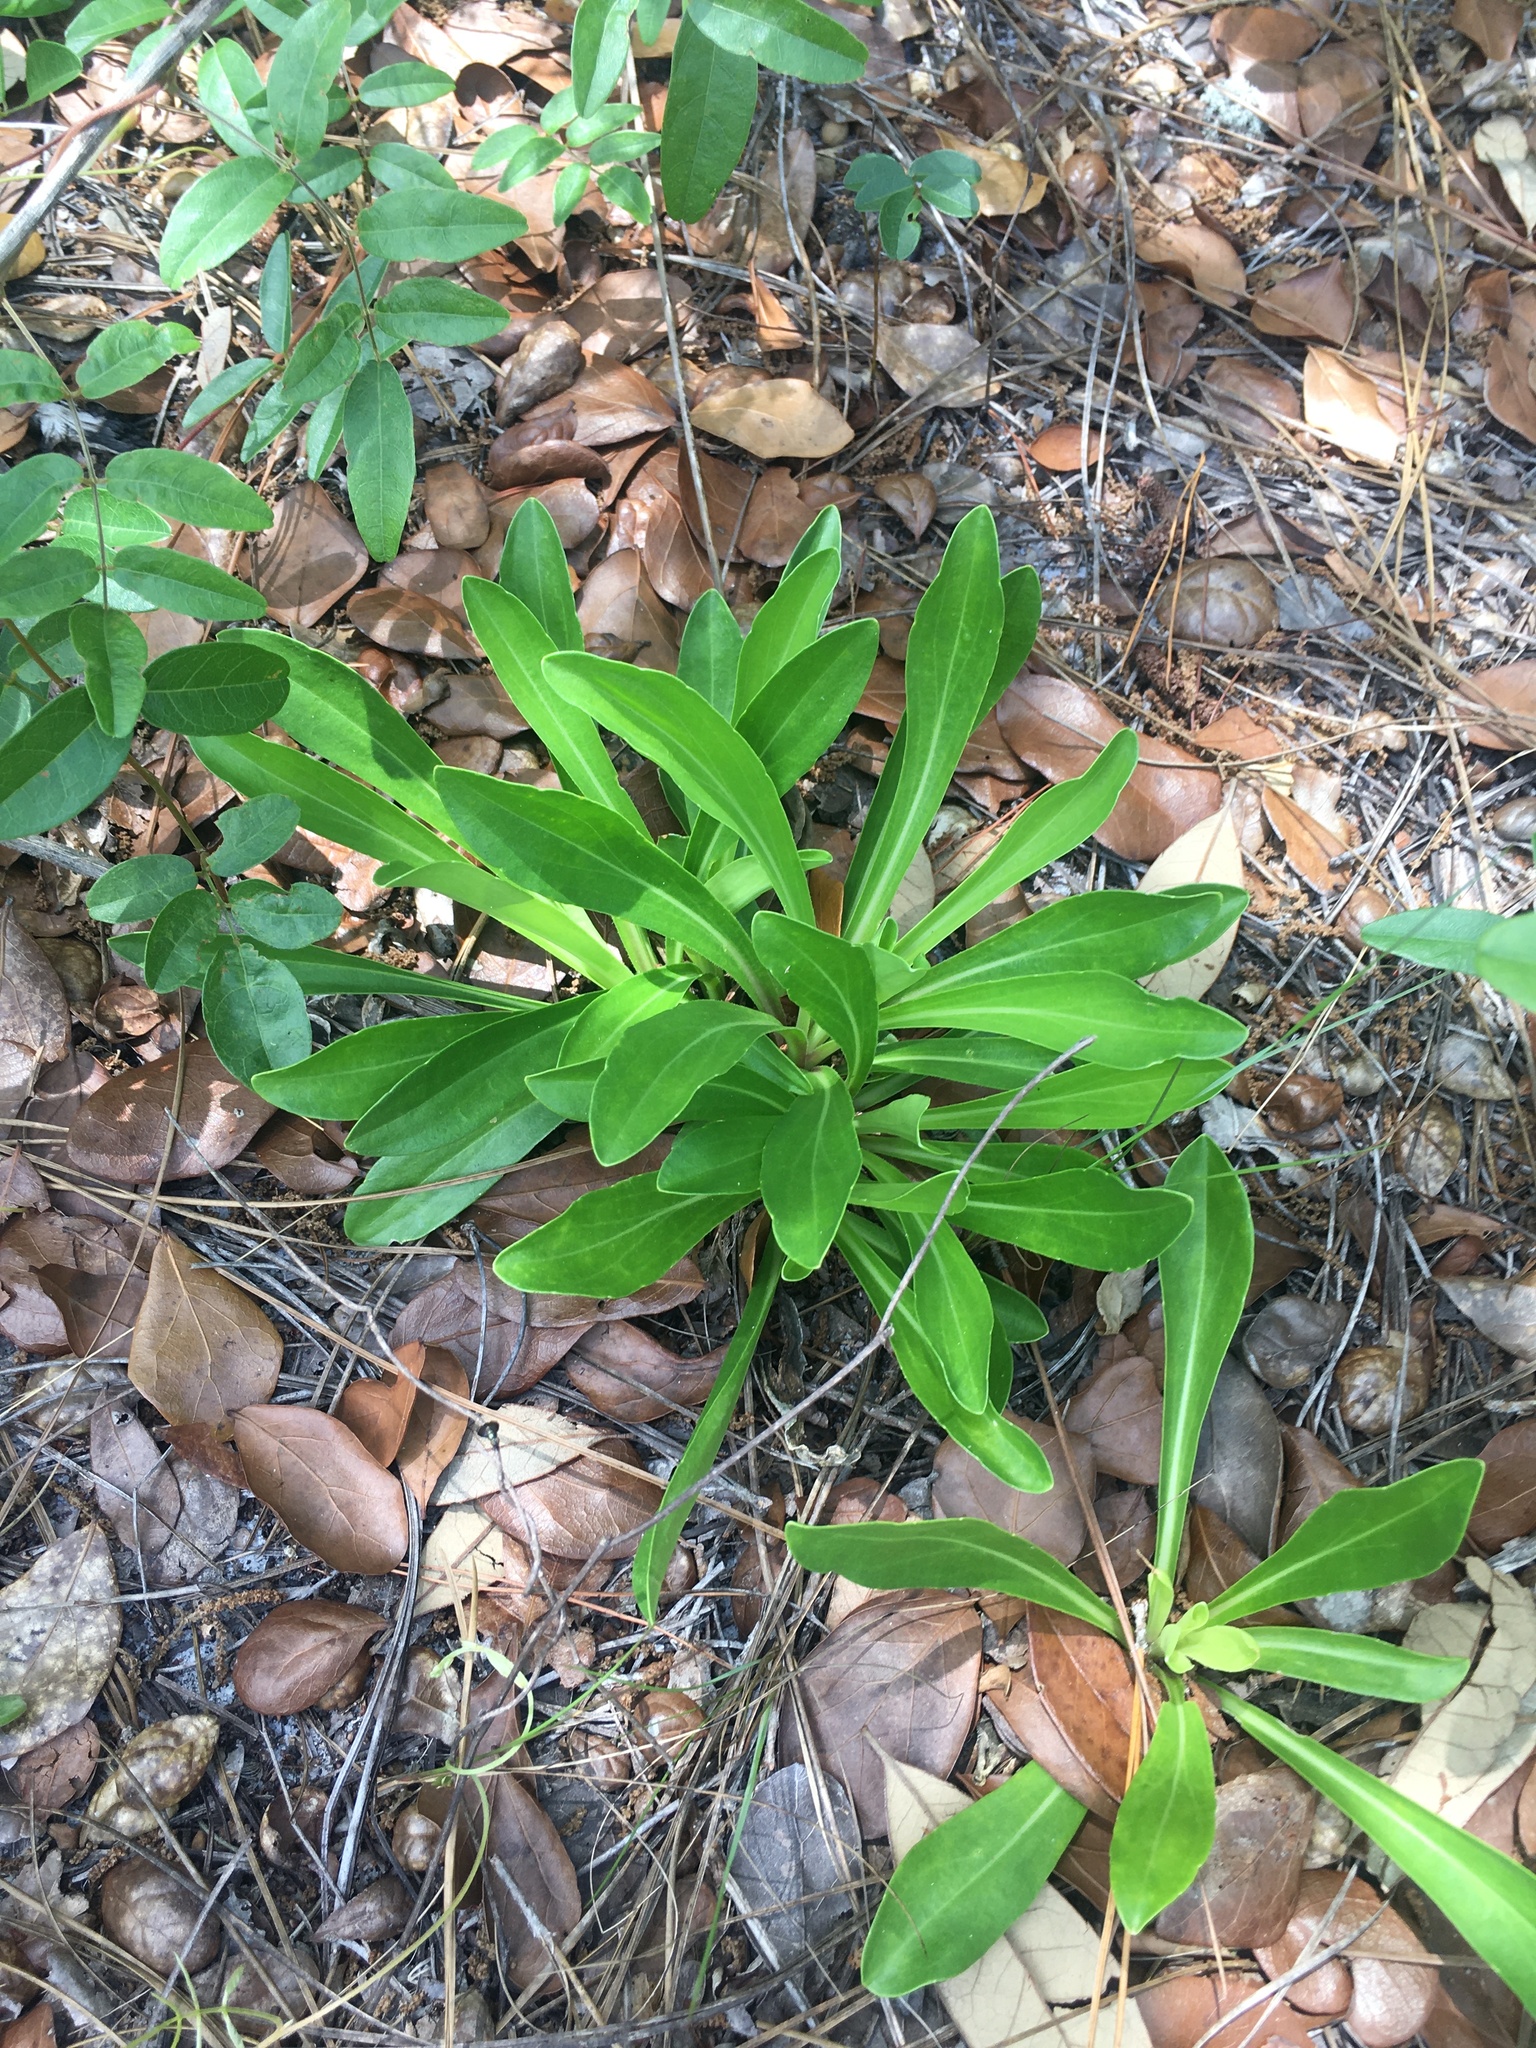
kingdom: Plantae
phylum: Tracheophyta
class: Magnoliopsida
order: Asterales
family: Asteraceae
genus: Carphephorus
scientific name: Carphephorus corymbosus
